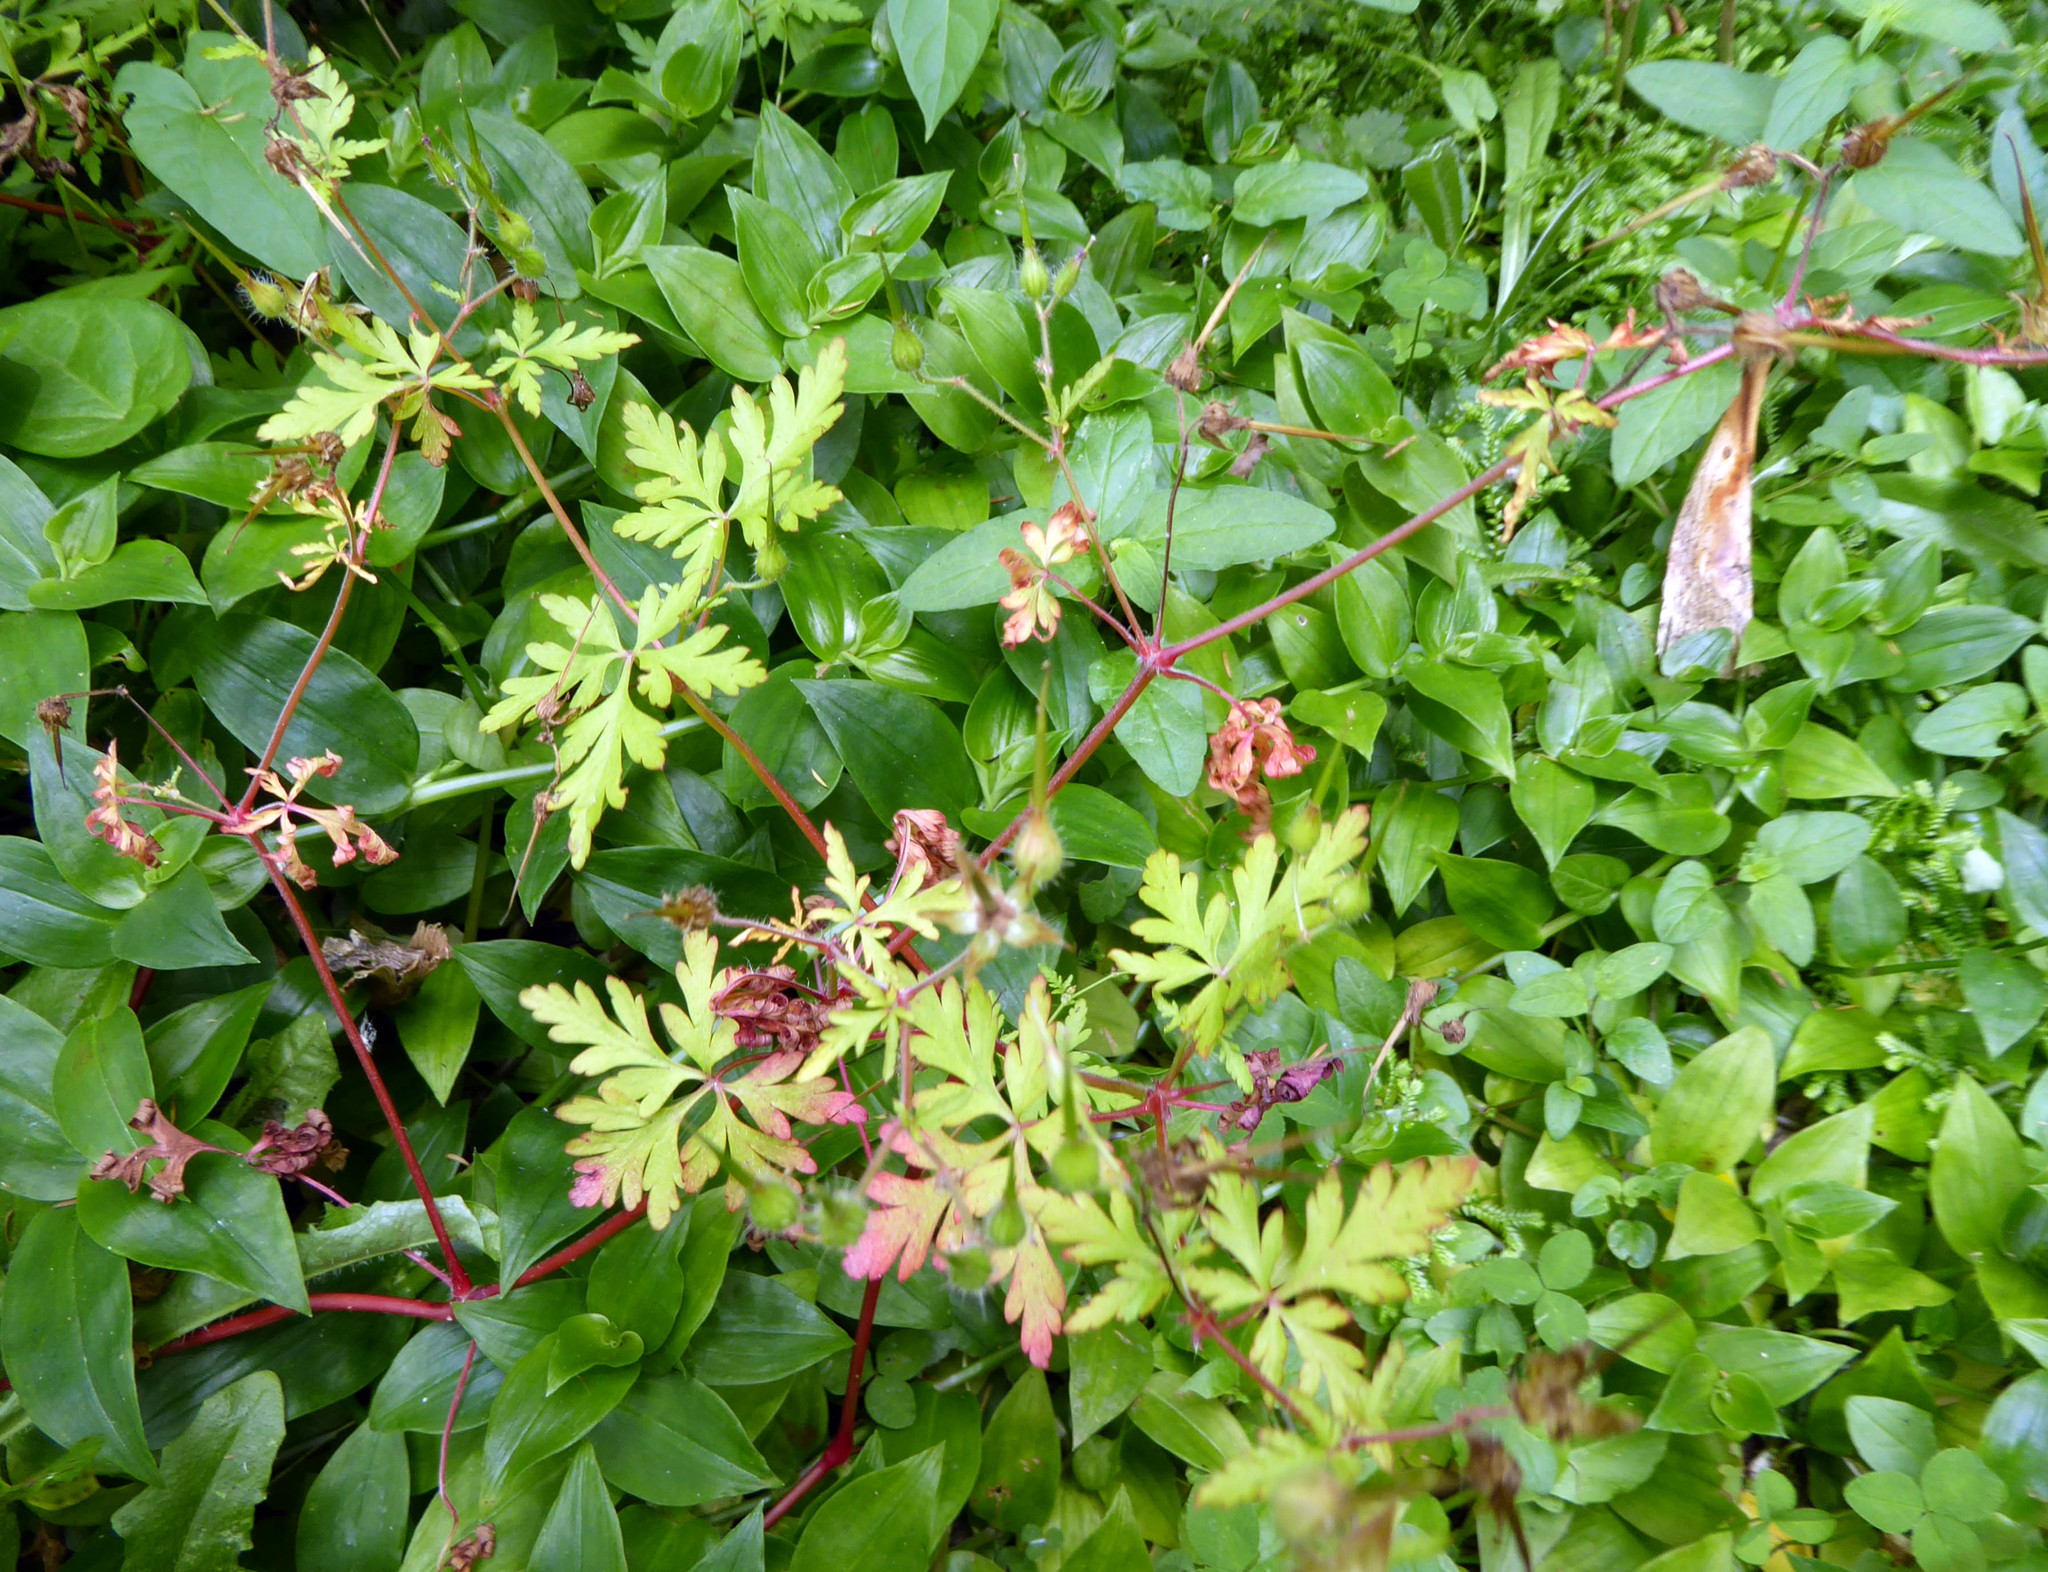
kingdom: Plantae
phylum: Tracheophyta
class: Magnoliopsida
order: Geraniales
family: Geraniaceae
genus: Geranium
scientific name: Geranium robertianum
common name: Herb-robert
